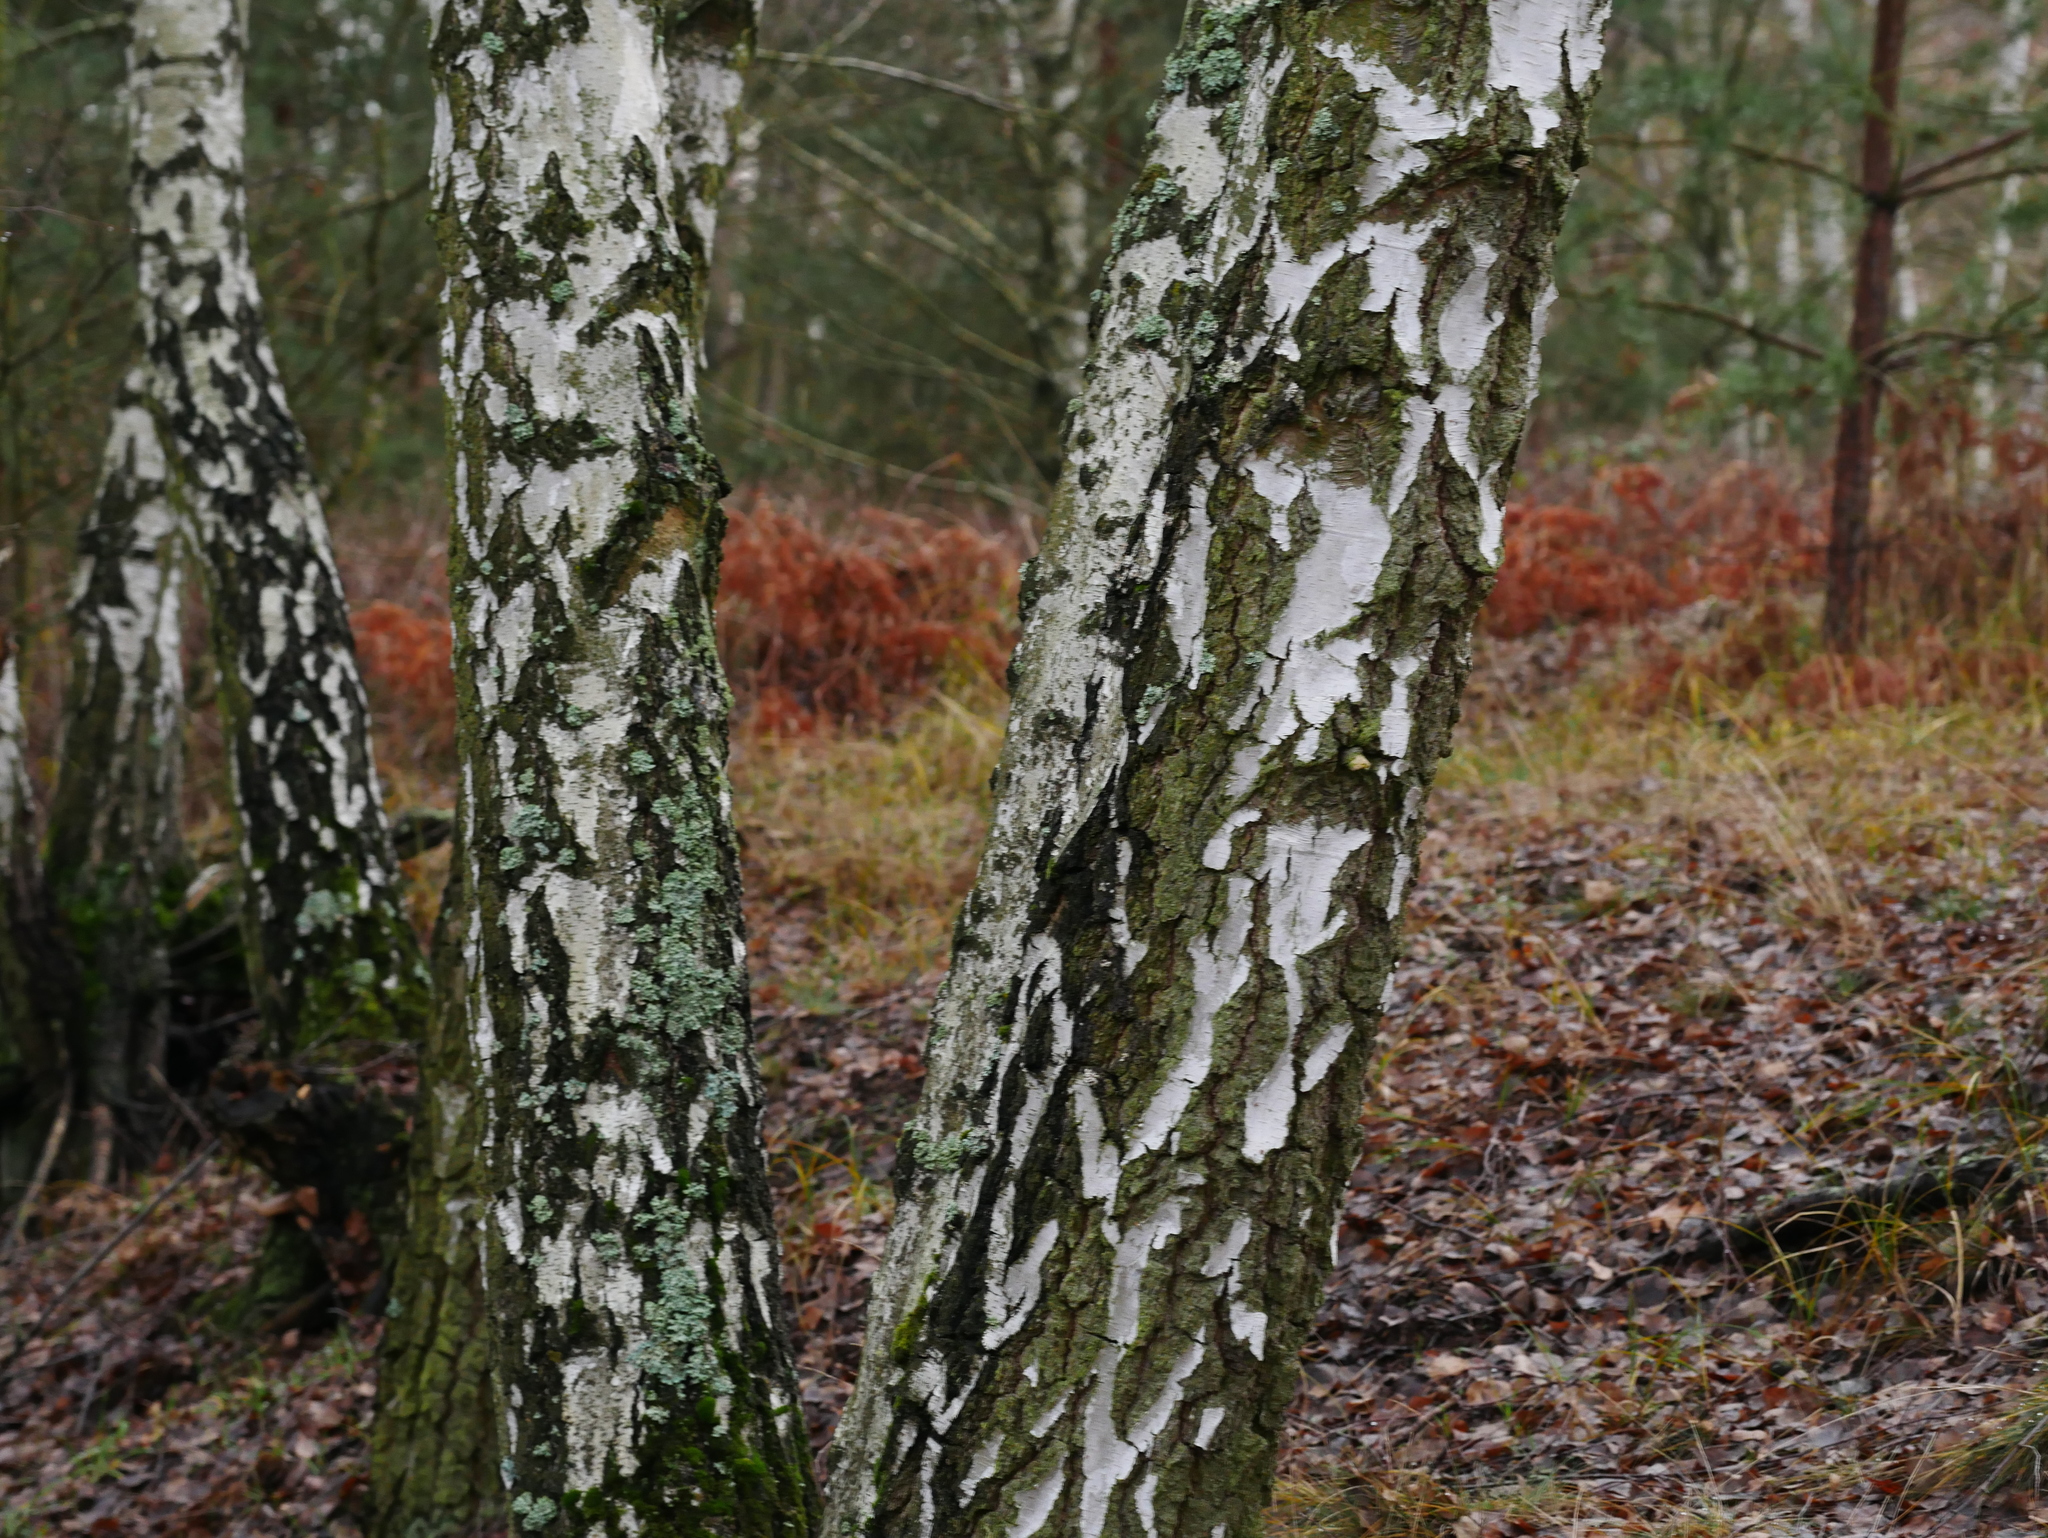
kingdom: Plantae
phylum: Tracheophyta
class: Magnoliopsida
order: Fagales
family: Betulaceae
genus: Betula
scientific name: Betula pendula
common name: Silver birch
